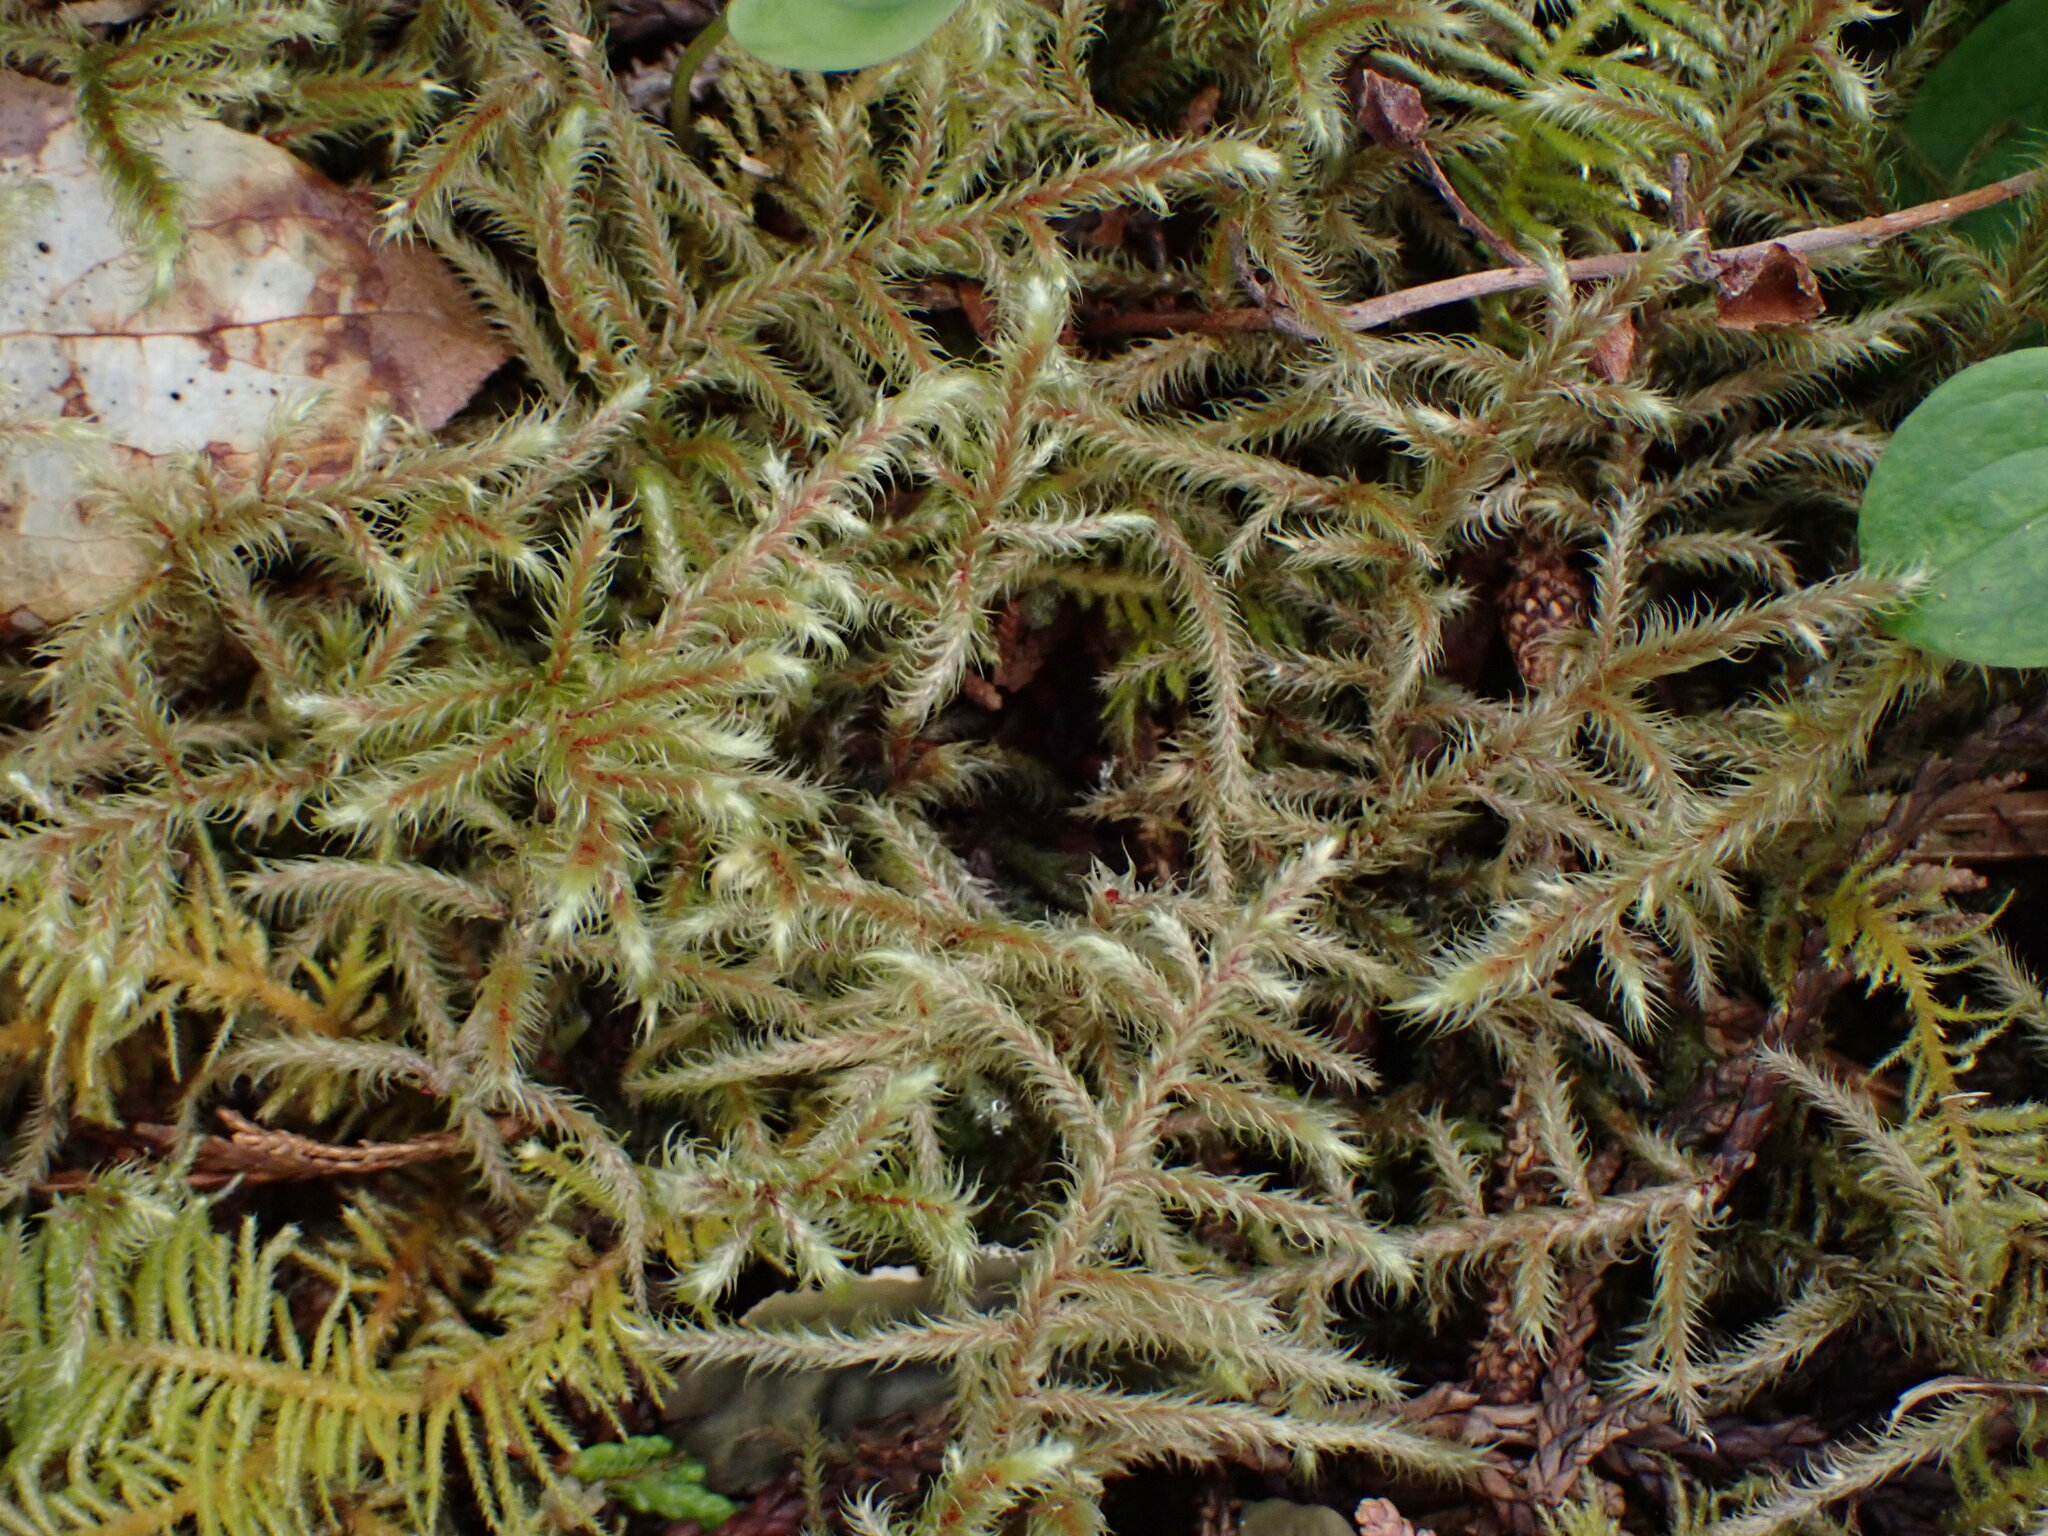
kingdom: Plantae
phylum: Bryophyta
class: Bryopsida
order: Hypnales
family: Hylocomiaceae
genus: Rhytidiadelphus
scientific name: Rhytidiadelphus loreus
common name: Lanky moss
